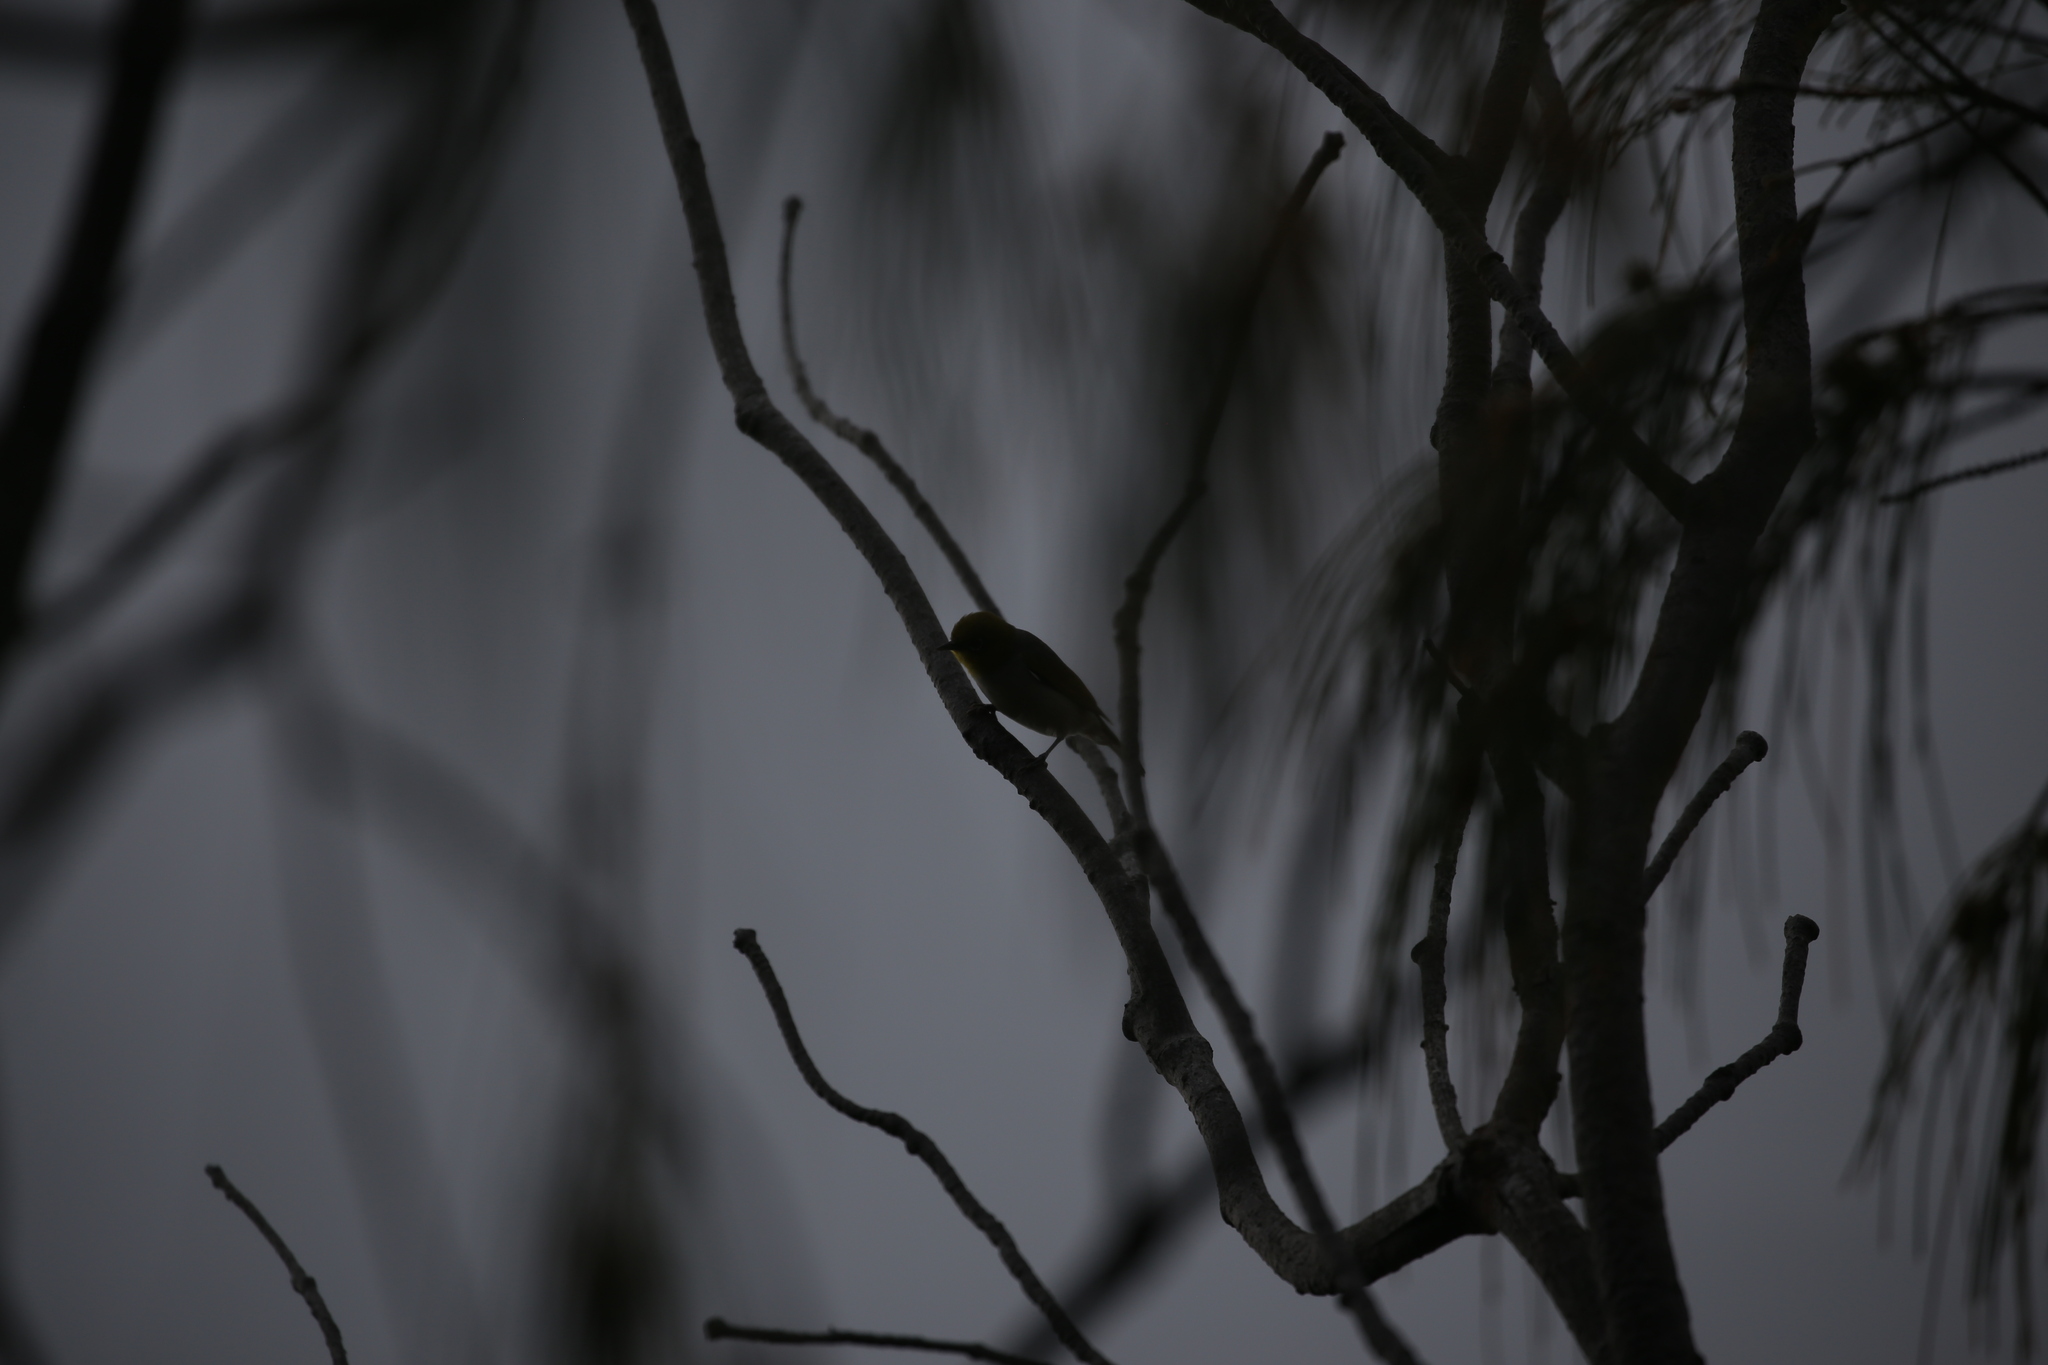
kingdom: Animalia
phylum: Chordata
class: Aves
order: Passeriformes
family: Zosteropidae
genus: Zosterops
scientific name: Zosterops lateralis
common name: Silvereye
